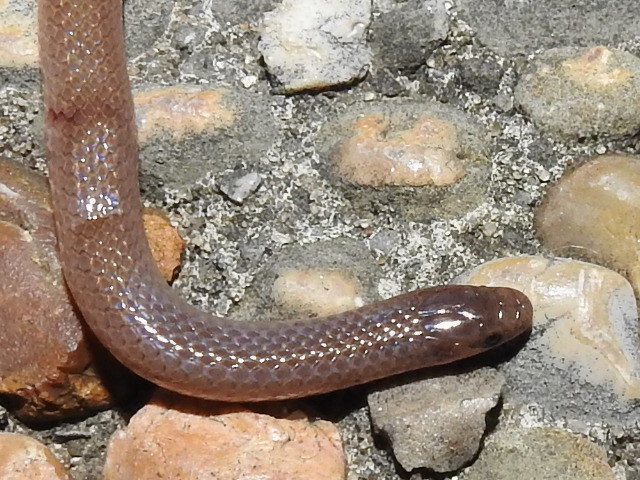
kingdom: Animalia
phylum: Chordata
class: Squamata
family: Colubridae
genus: Tantilla
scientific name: Tantilla gracilis
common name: Flathead snake
